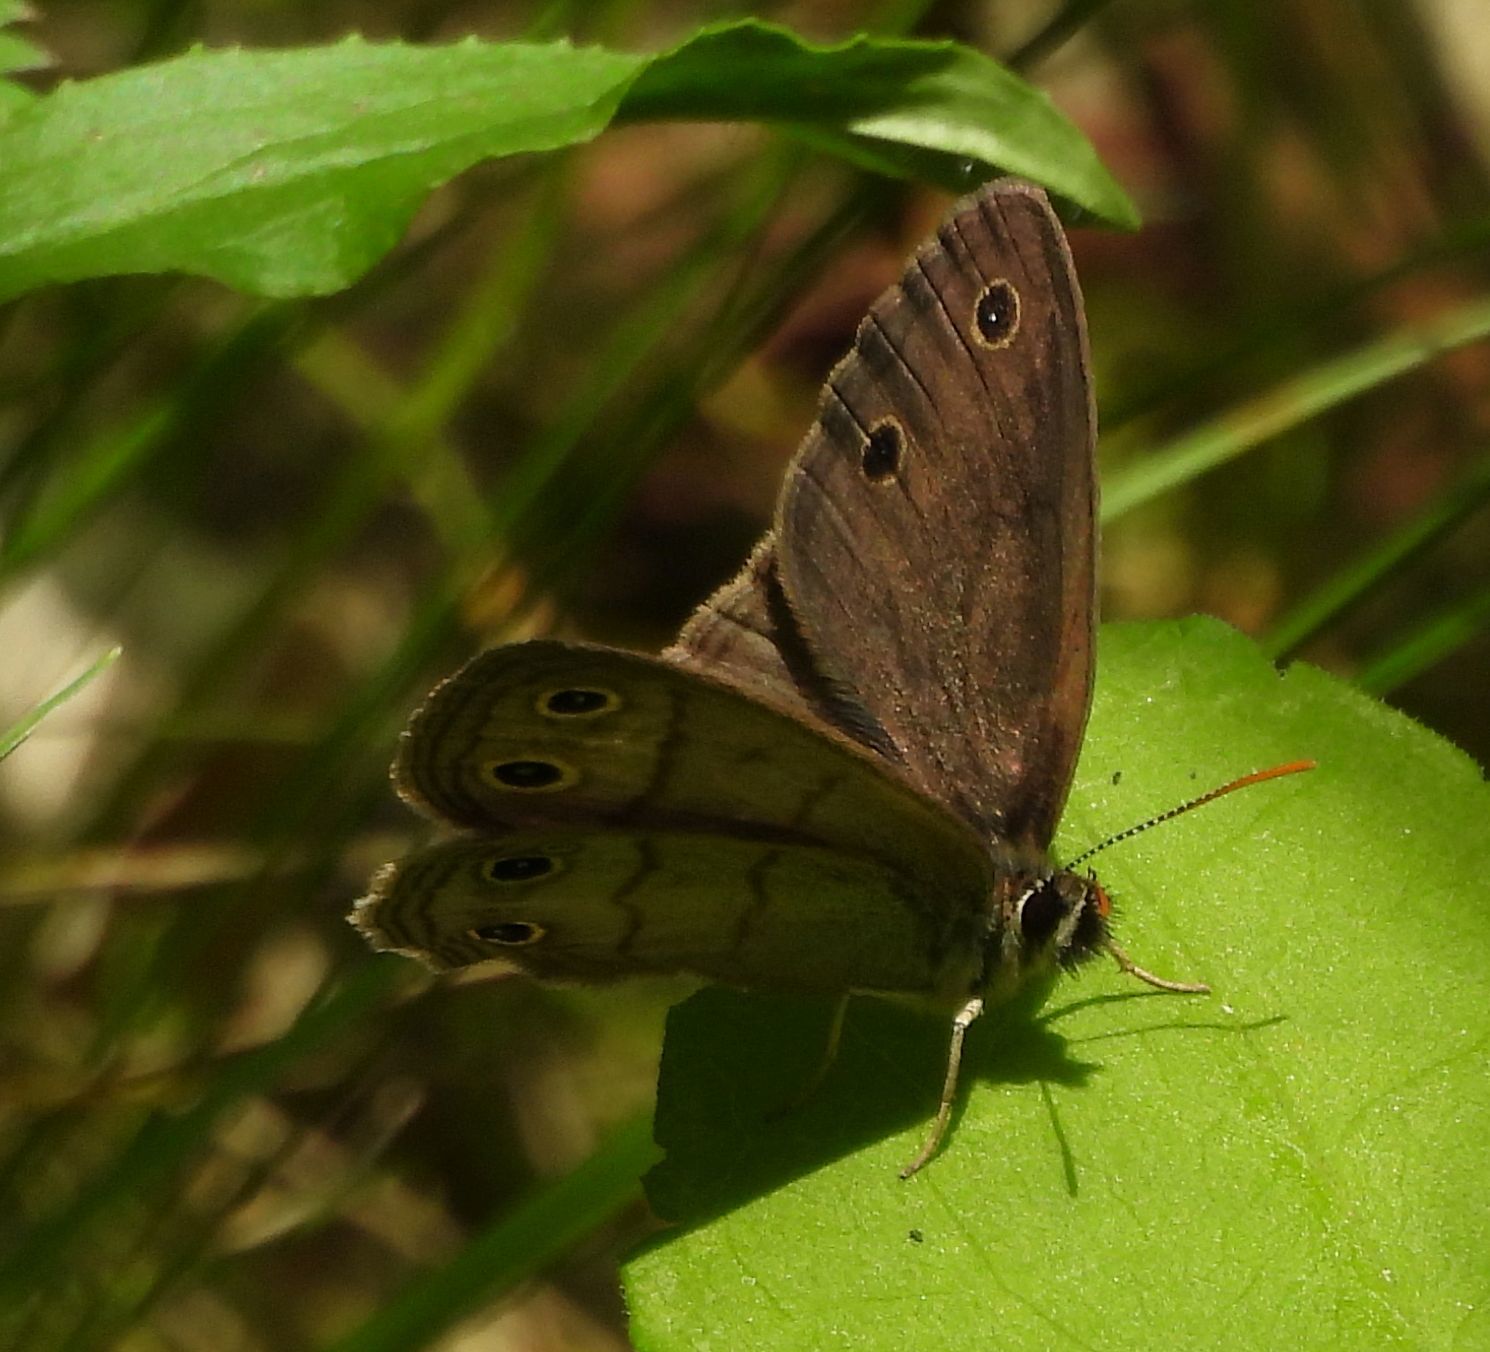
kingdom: Animalia
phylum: Arthropoda
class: Insecta
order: Lepidoptera
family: Nymphalidae
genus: Euptychia
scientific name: Euptychia cymela
